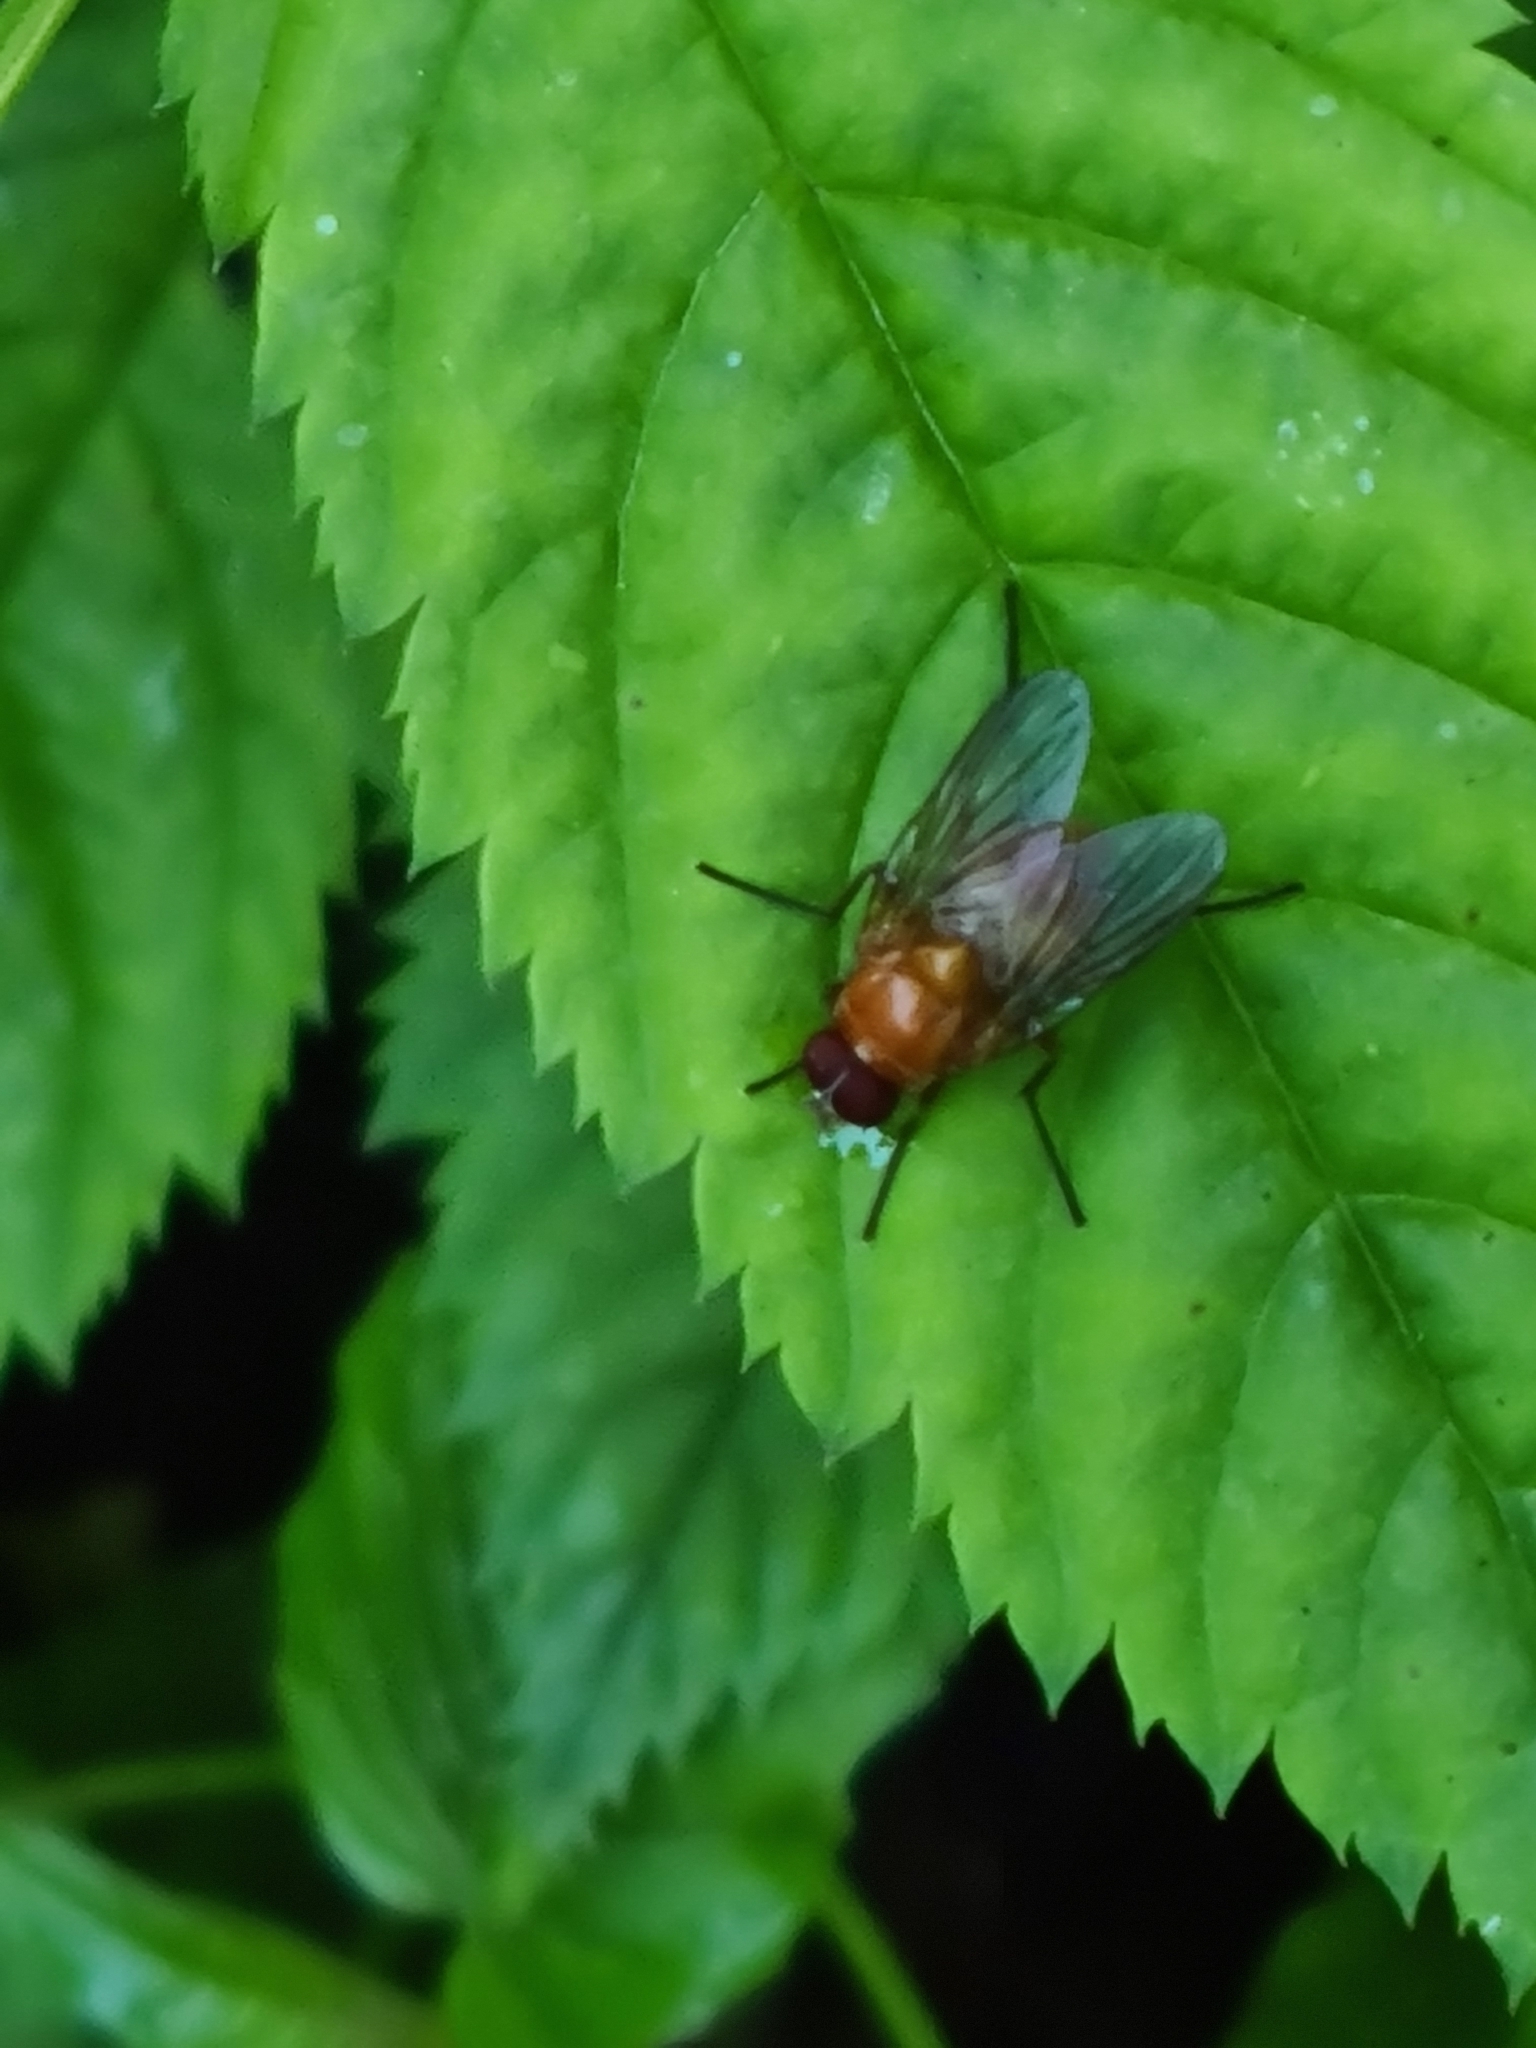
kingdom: Animalia
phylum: Arthropoda
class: Insecta
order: Diptera
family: Muscidae
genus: Phaonia
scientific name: Phaonia pallida
